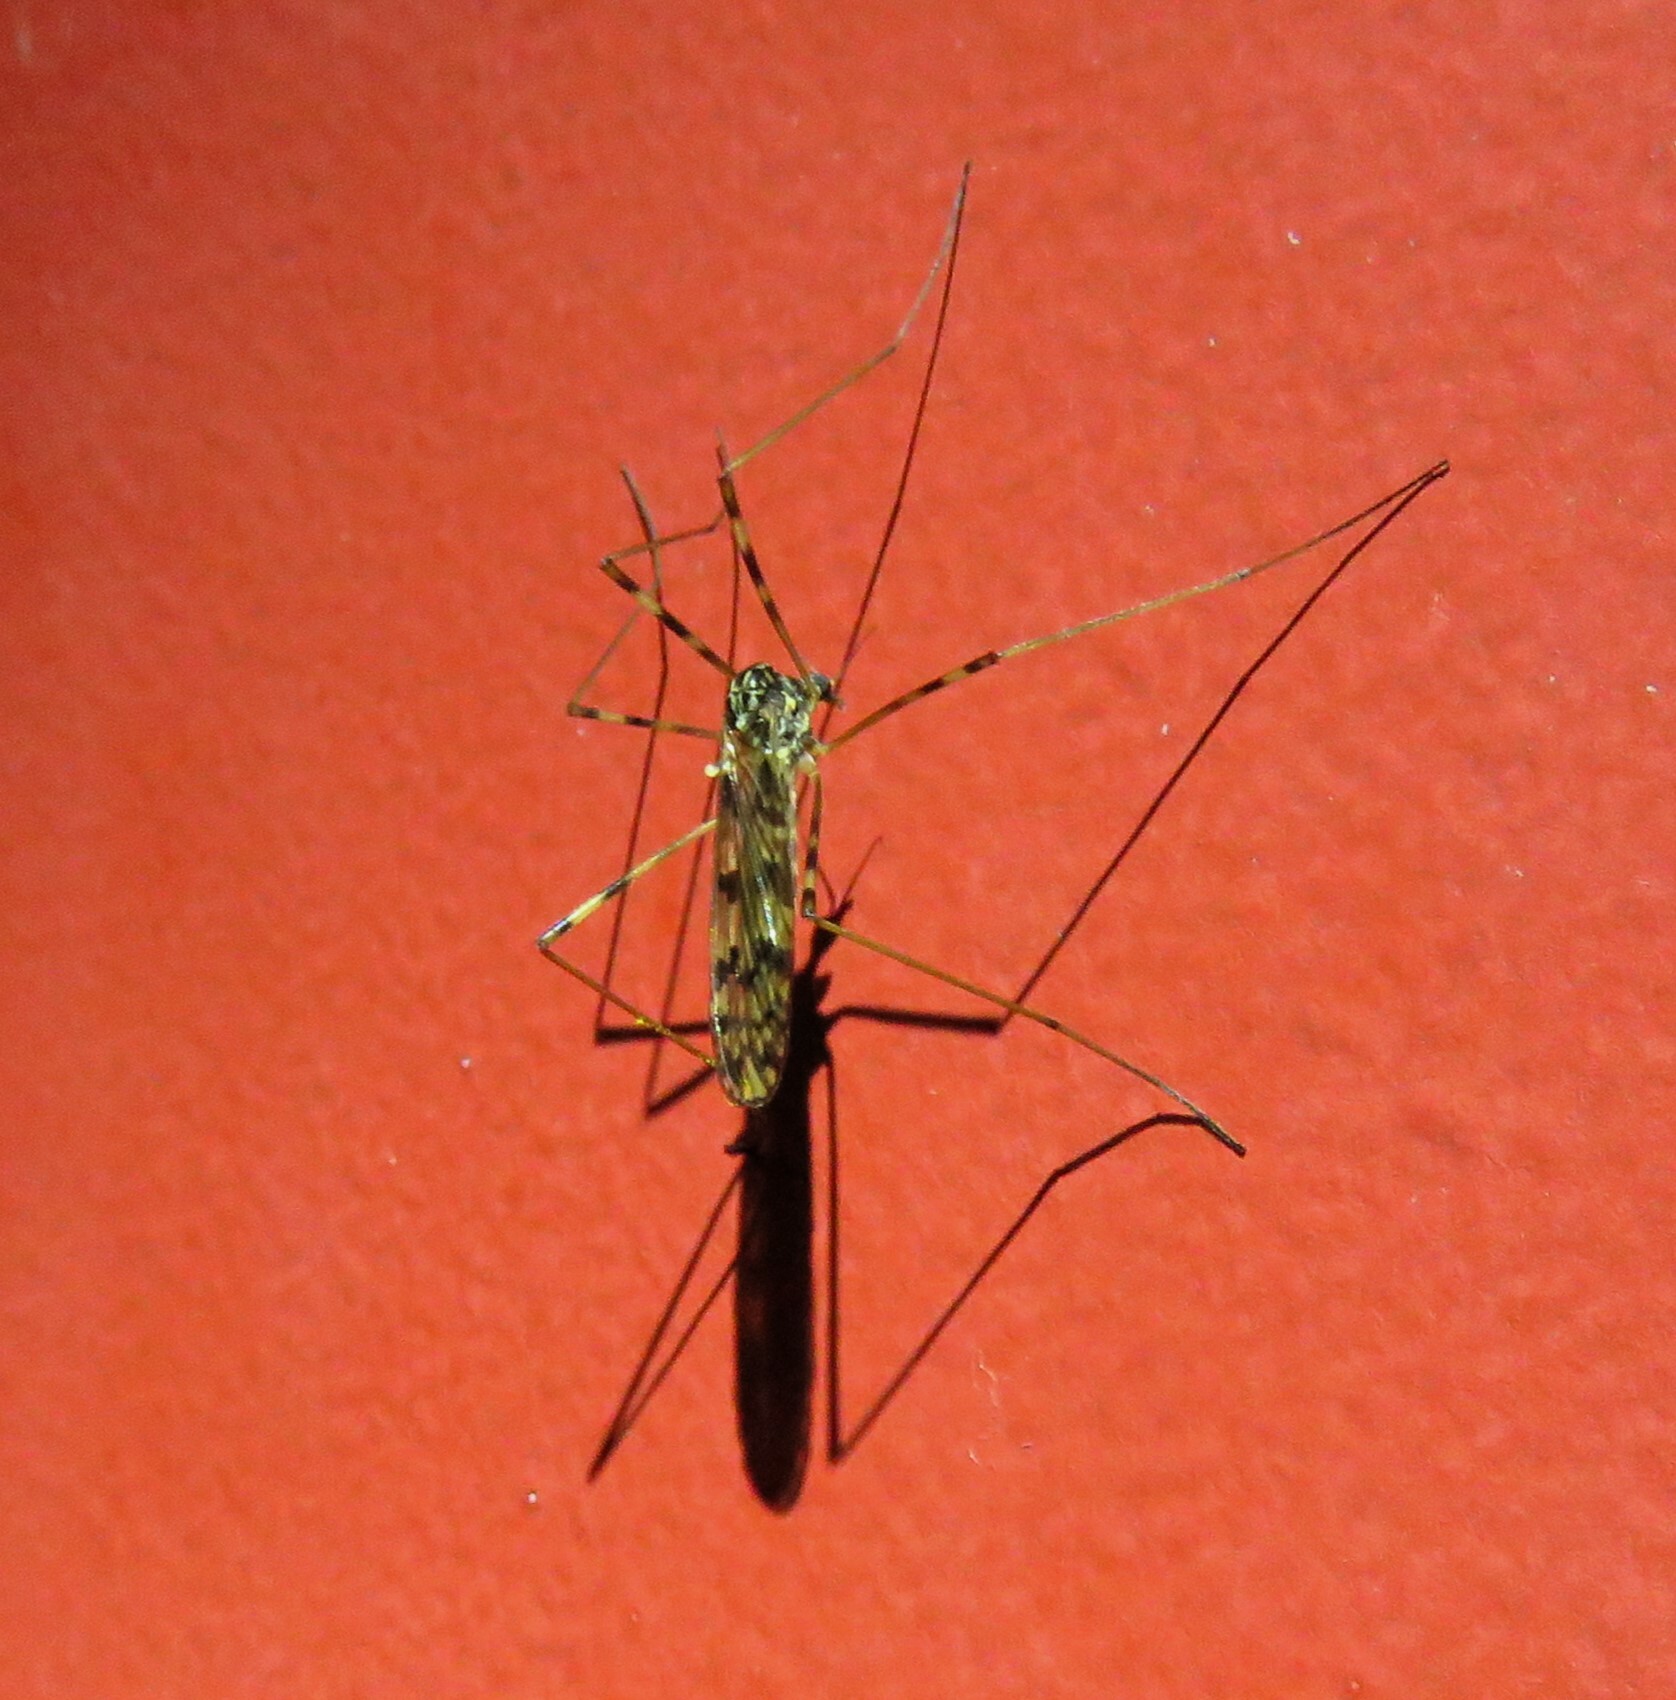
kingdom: Animalia
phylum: Arthropoda
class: Insecta
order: Diptera
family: Limoniidae
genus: Metalimnobia
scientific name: Metalimnobia immatura
